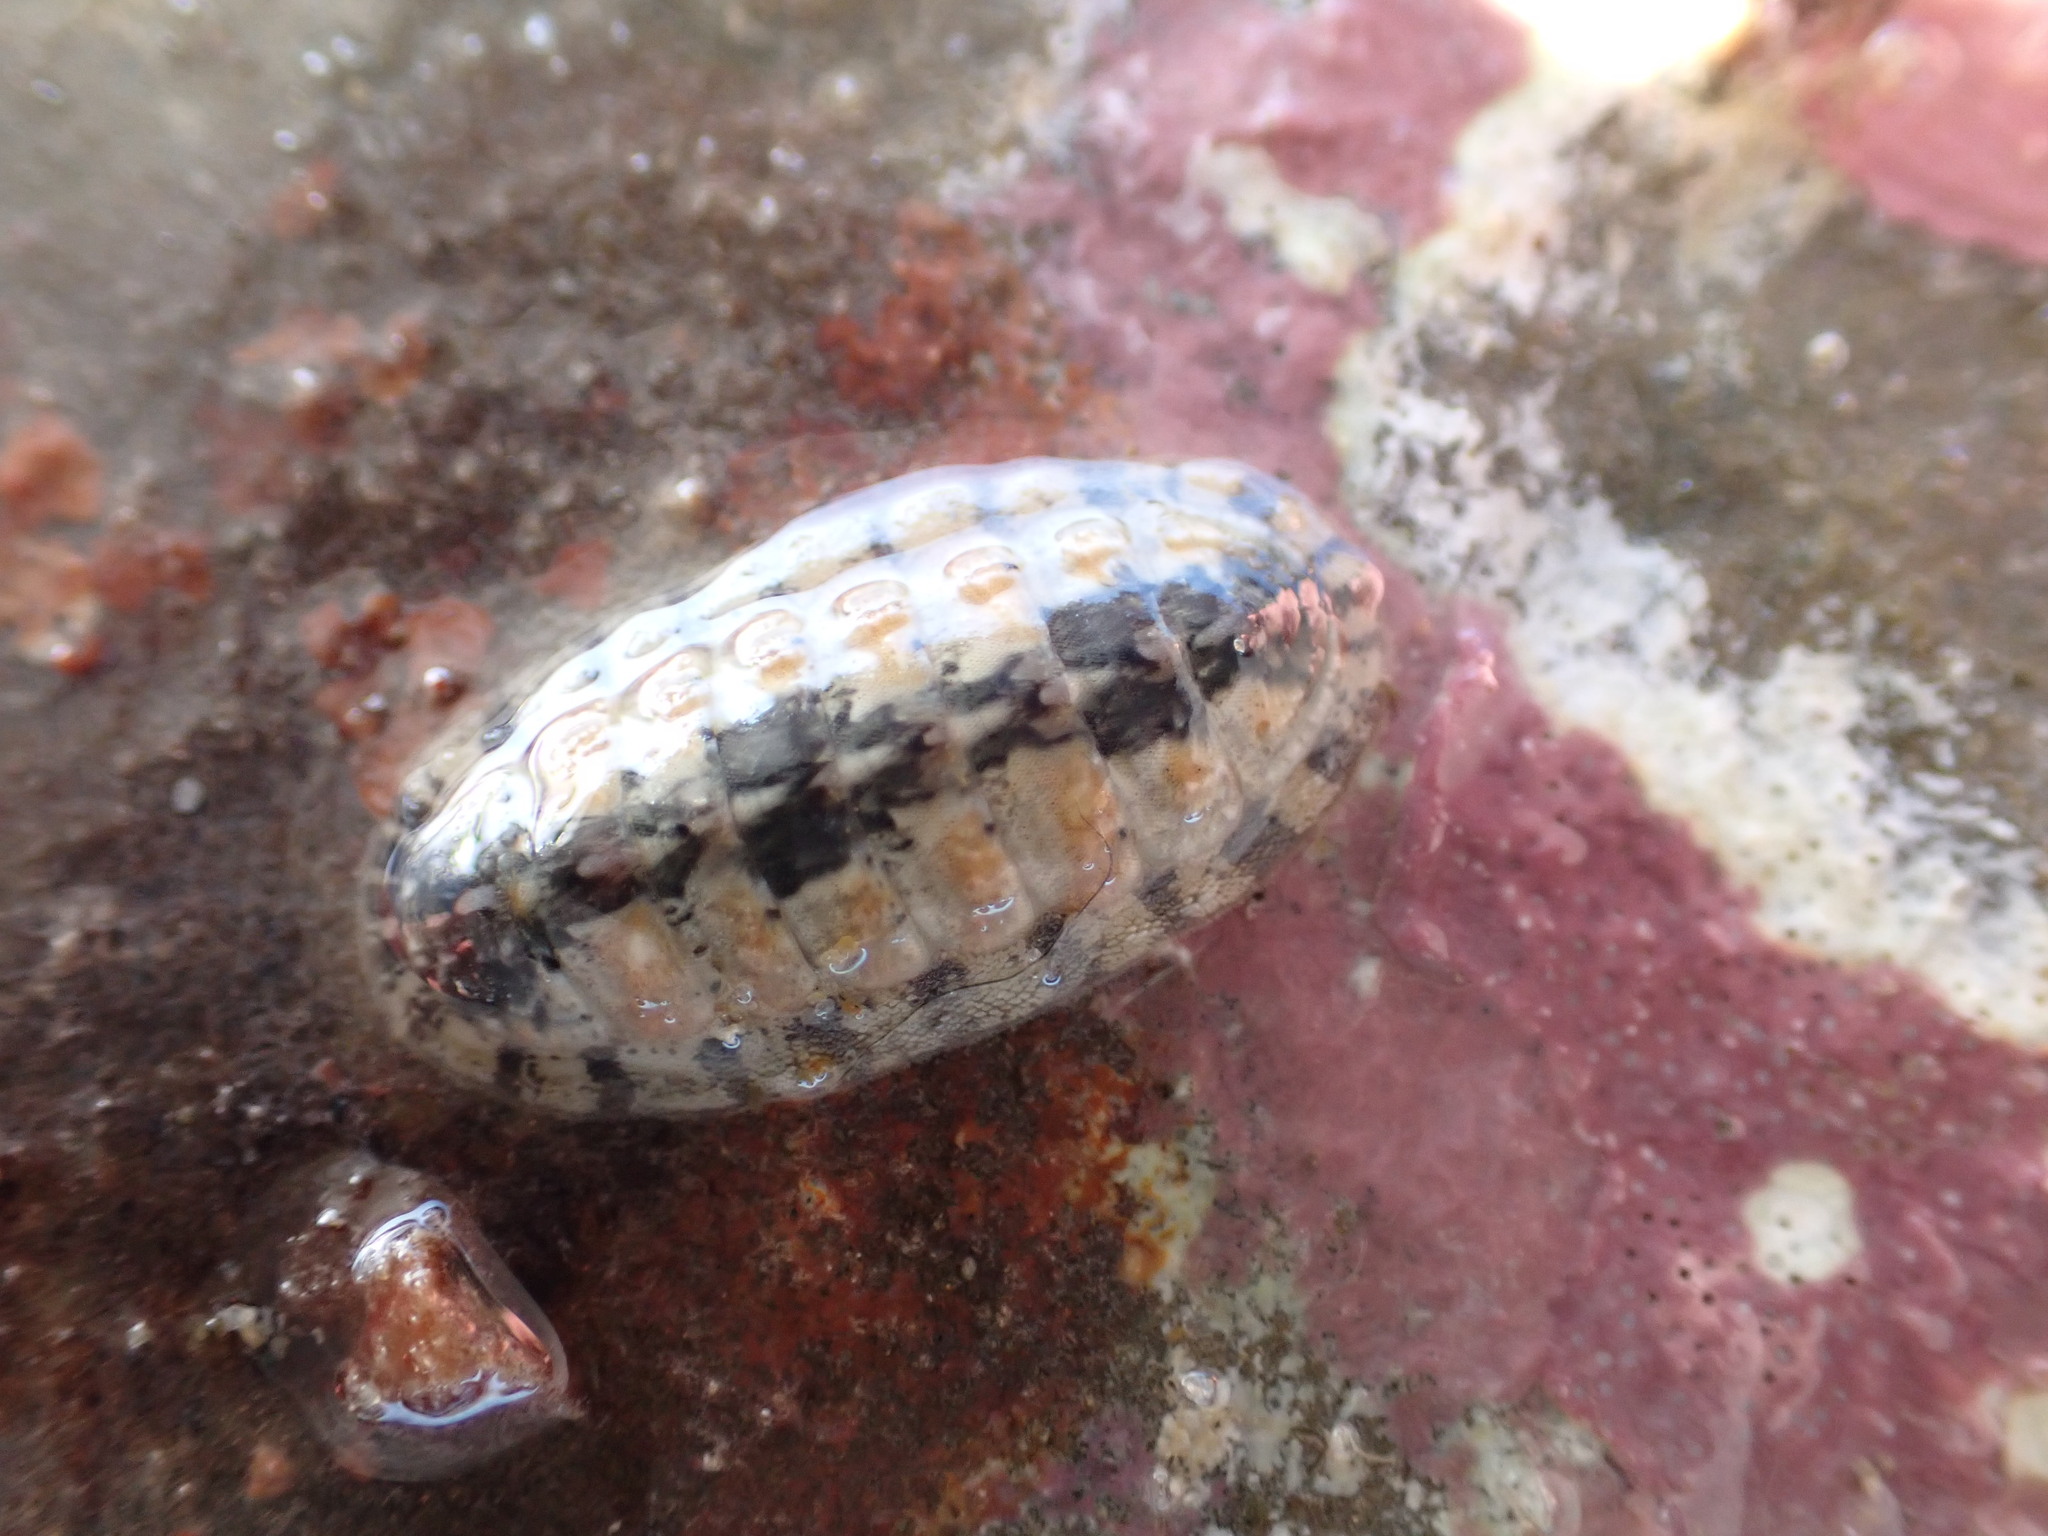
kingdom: Animalia
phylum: Mollusca
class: Polyplacophora
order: Chitonida
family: Ischnochitonidae
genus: Ischnochiton
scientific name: Ischnochiton maorianus
